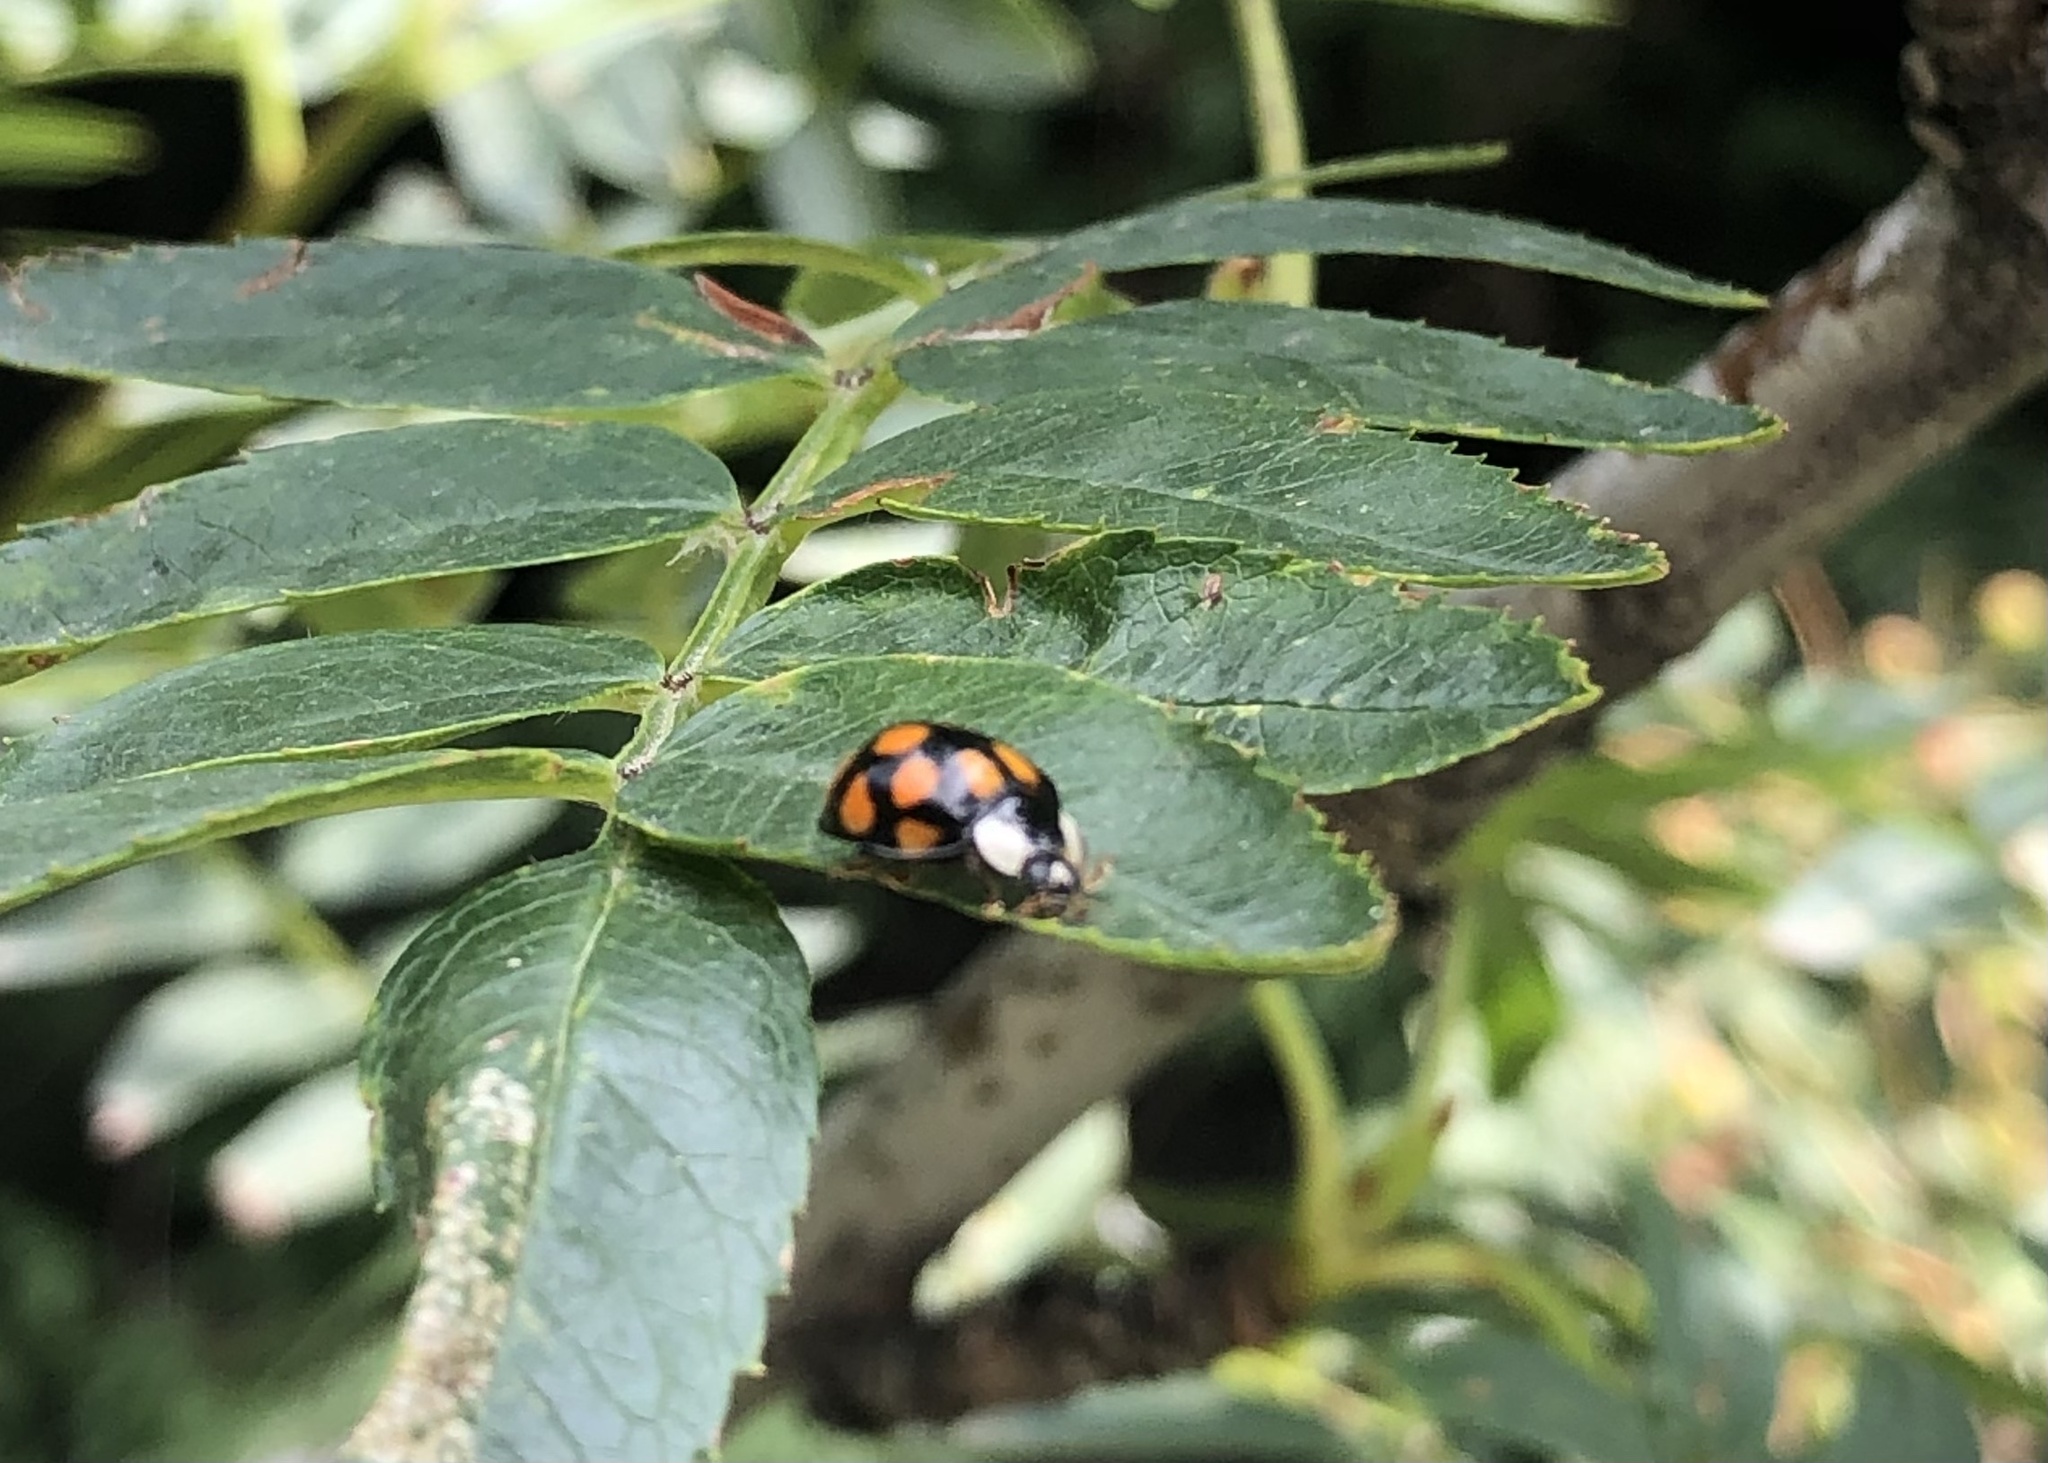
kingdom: Animalia
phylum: Arthropoda
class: Insecta
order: Coleoptera
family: Coccinellidae
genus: Harmonia
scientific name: Harmonia axyridis
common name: Harlequin ladybird
